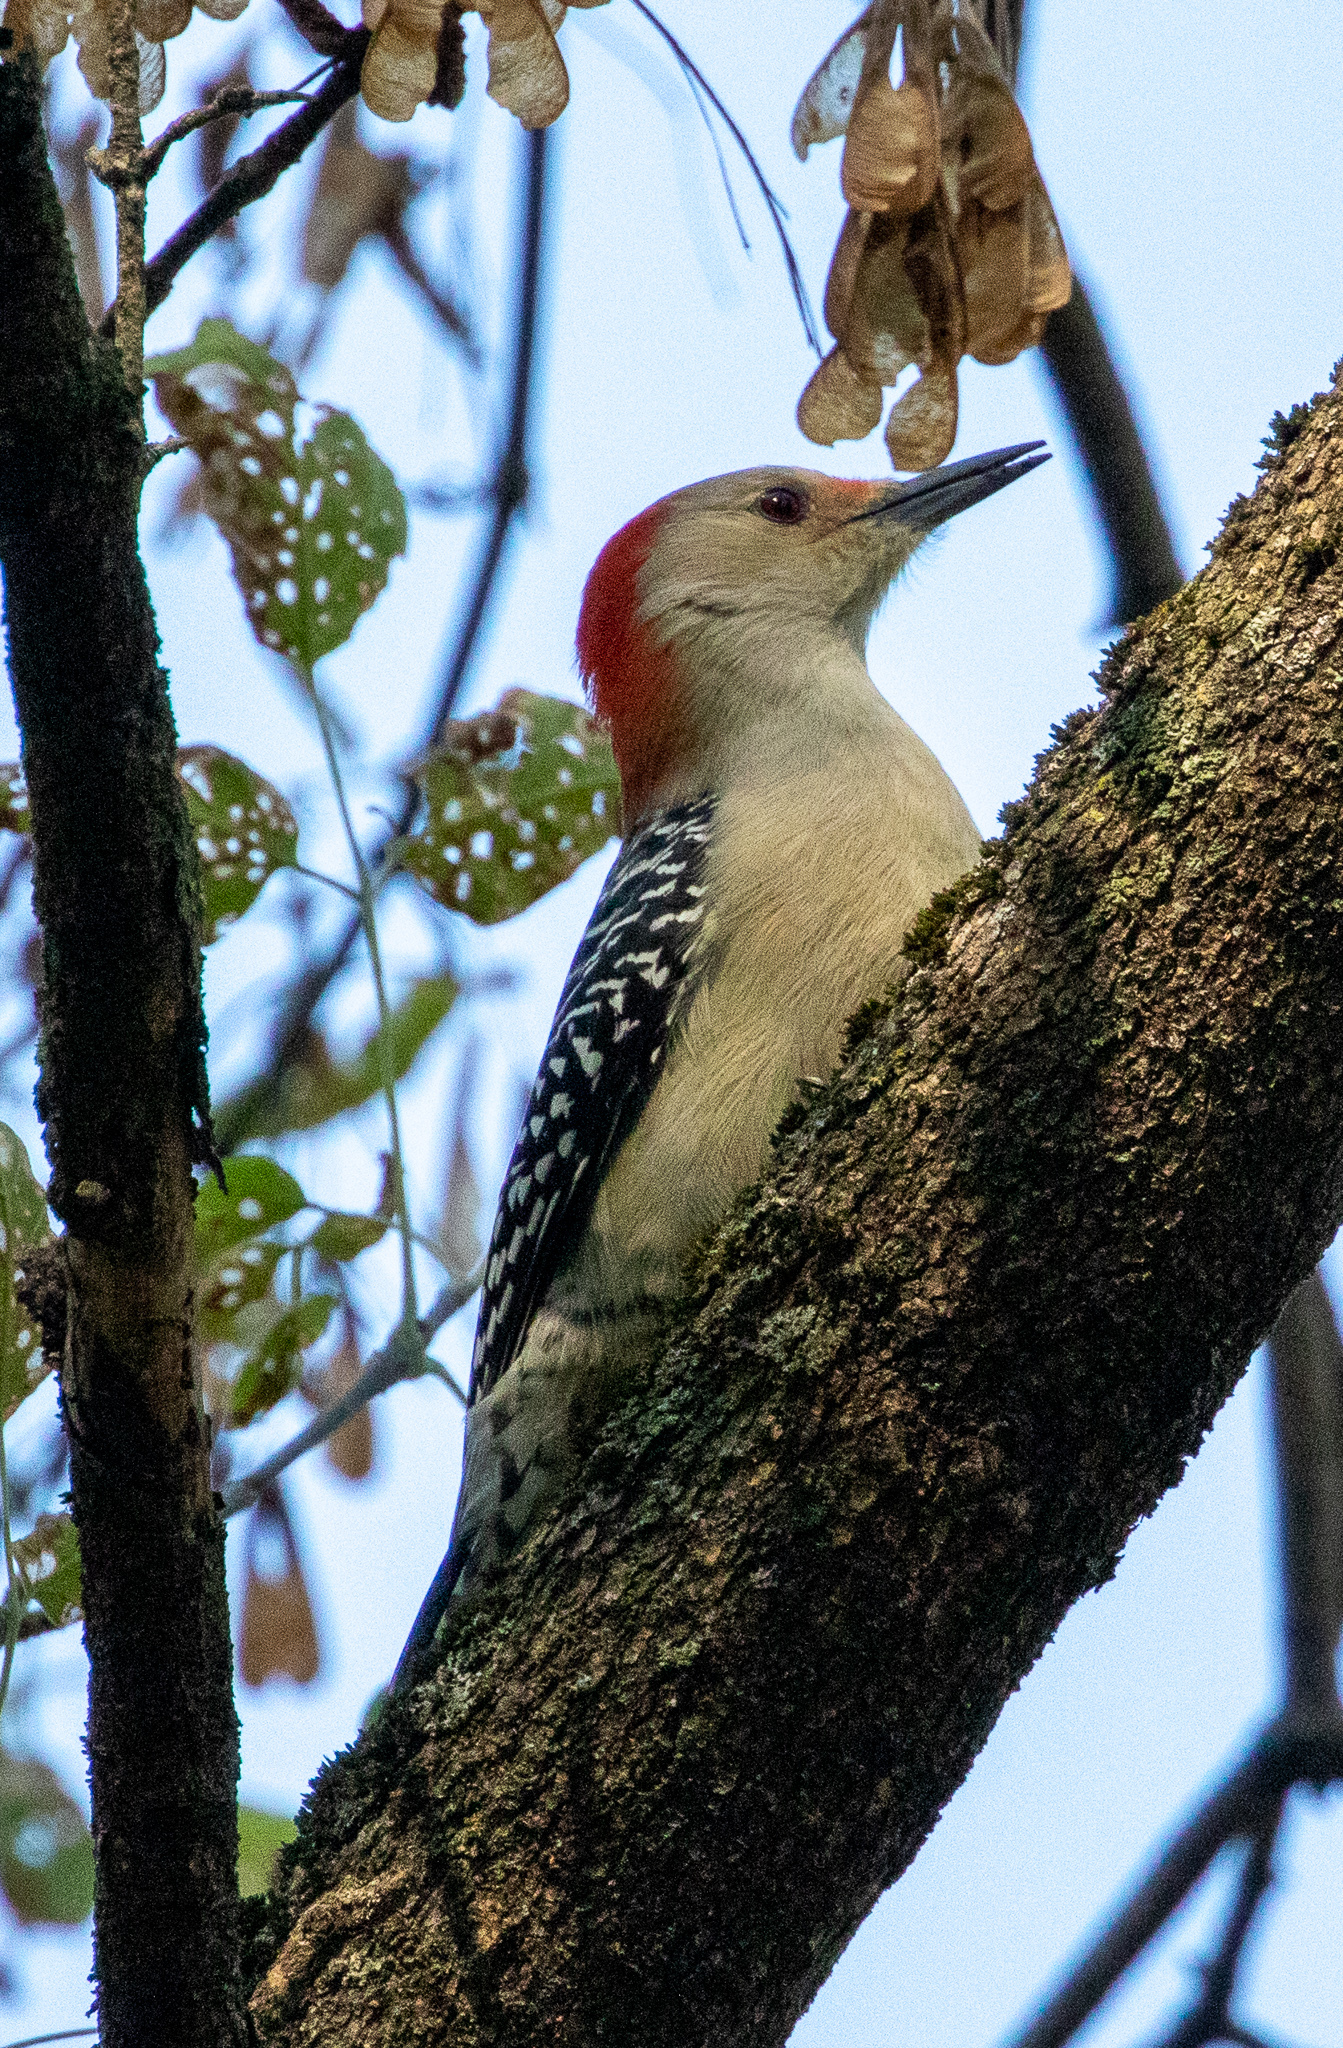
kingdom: Animalia
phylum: Chordata
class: Aves
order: Piciformes
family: Picidae
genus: Melanerpes
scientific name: Melanerpes carolinus
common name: Red-bellied woodpecker
